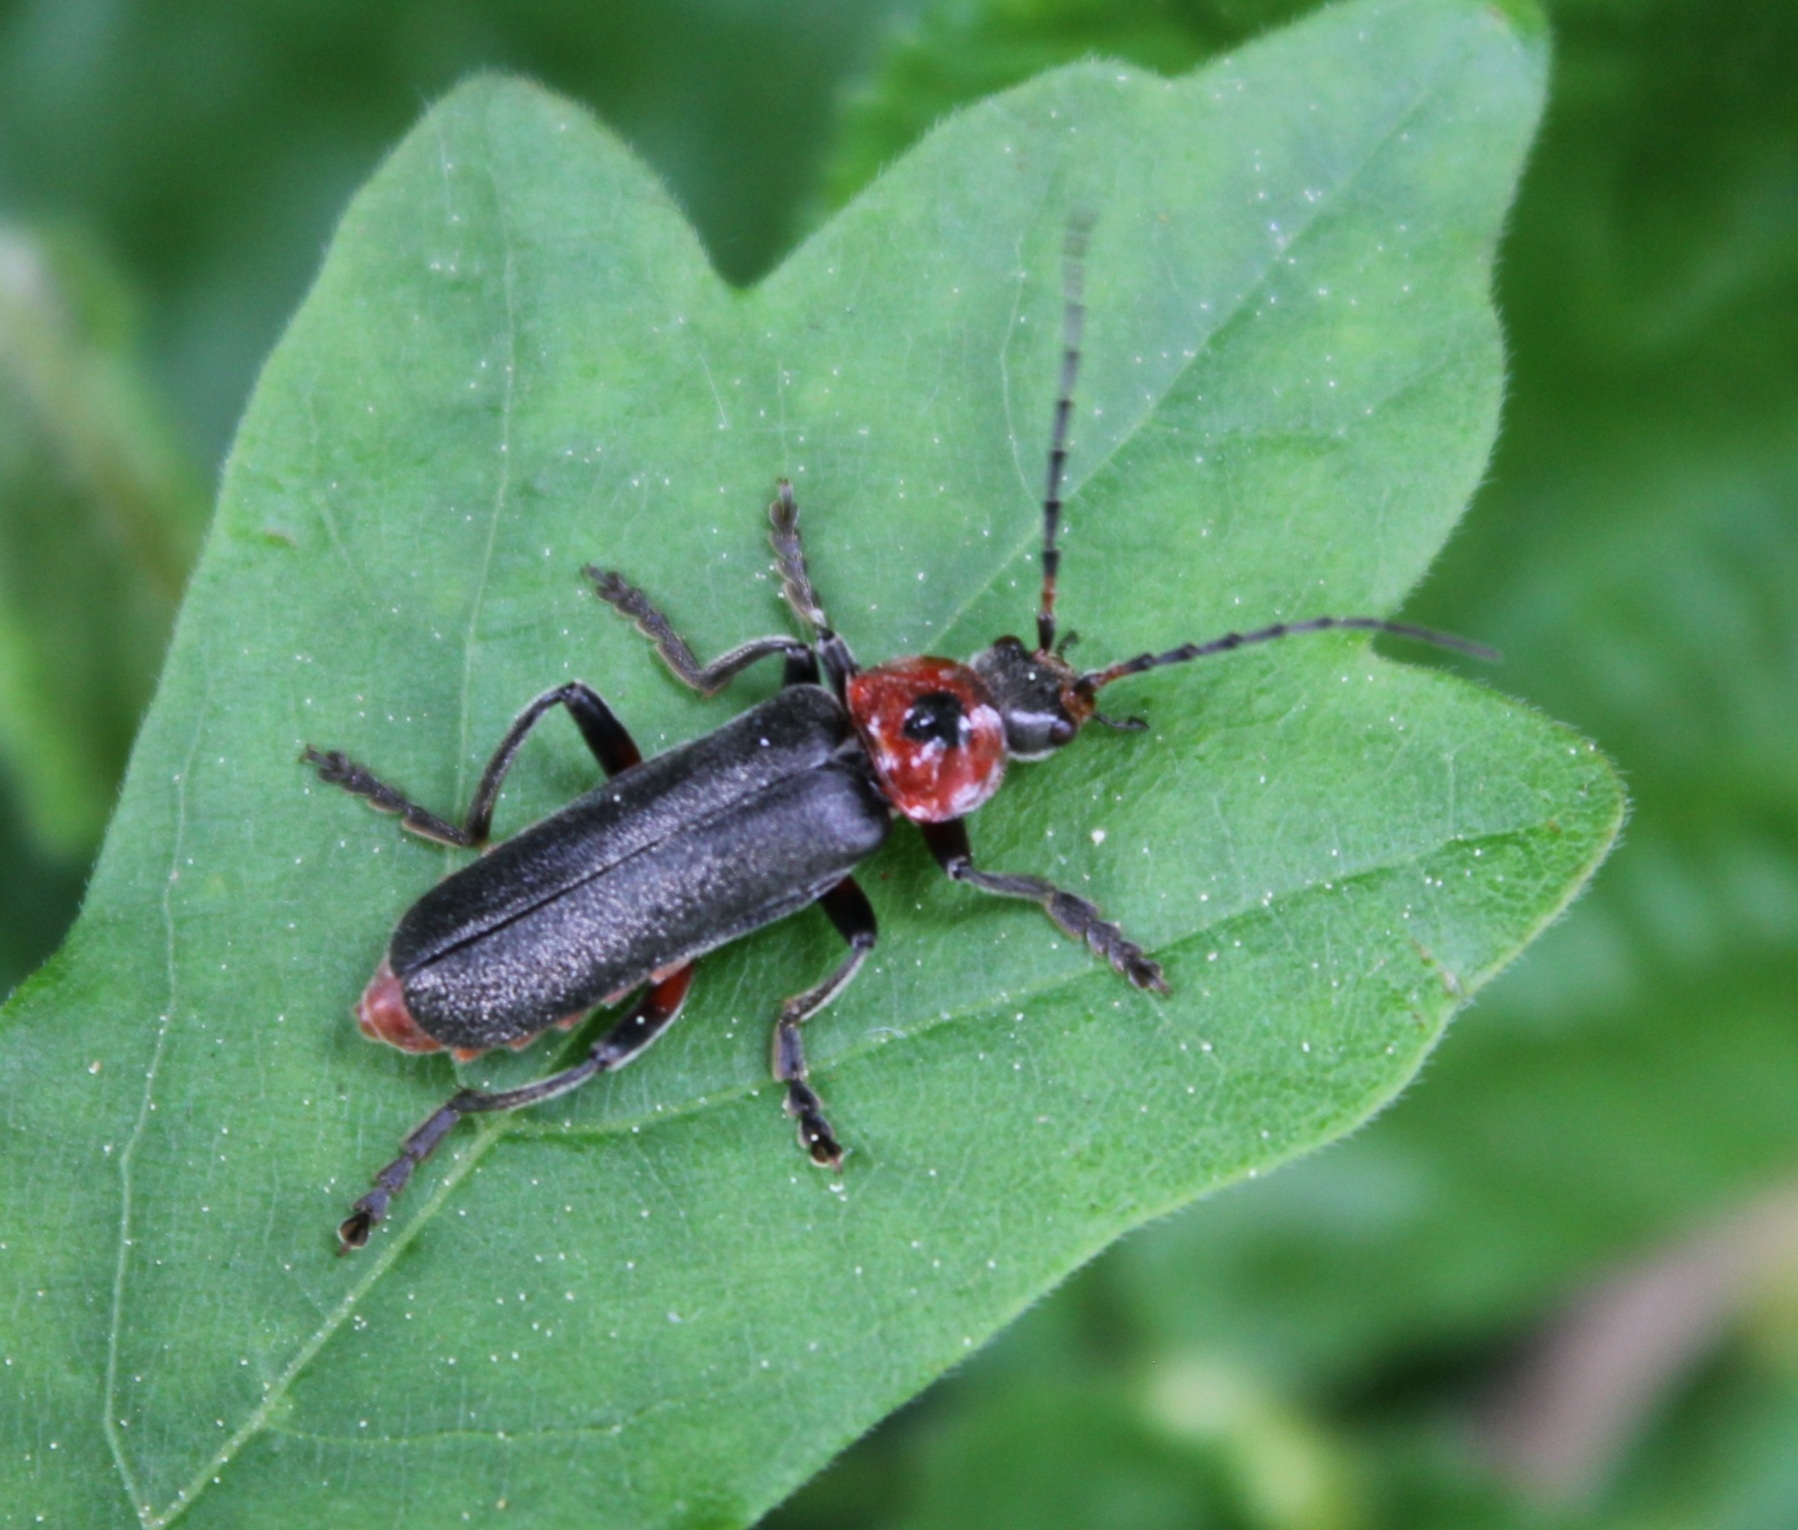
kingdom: Animalia
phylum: Arthropoda
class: Insecta
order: Coleoptera
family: Cantharidae
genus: Cantharis
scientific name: Cantharis rustica
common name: Soldier beetle
